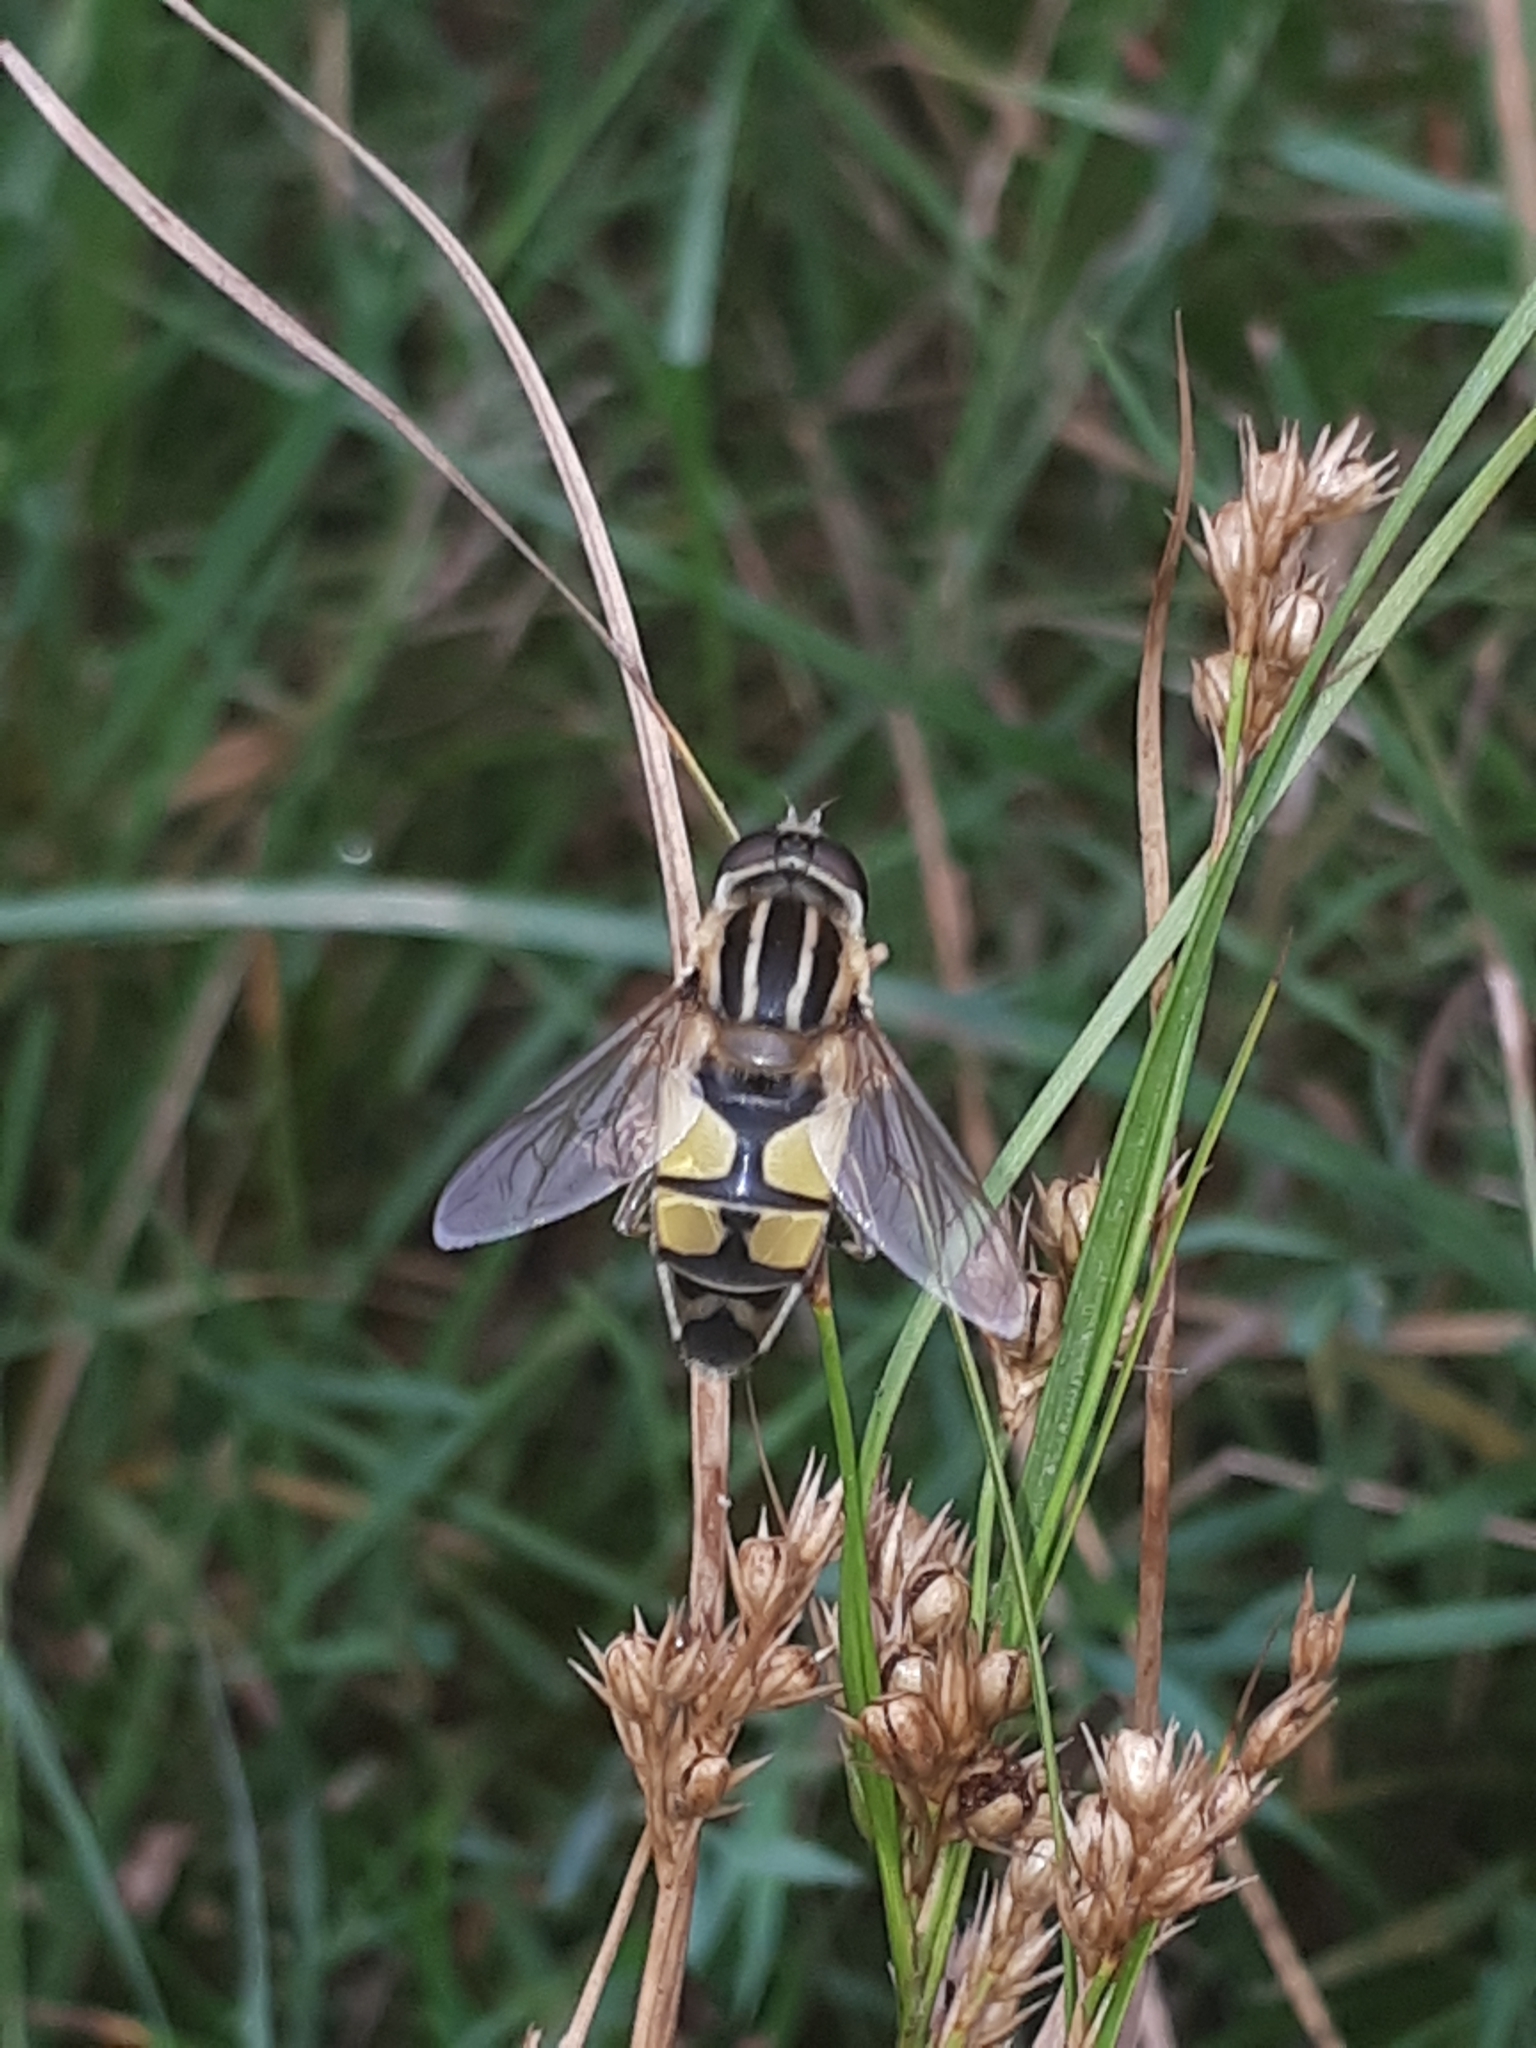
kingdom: Animalia
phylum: Arthropoda
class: Insecta
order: Diptera
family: Syrphidae
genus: Helophilus
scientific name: Helophilus trivittatus
